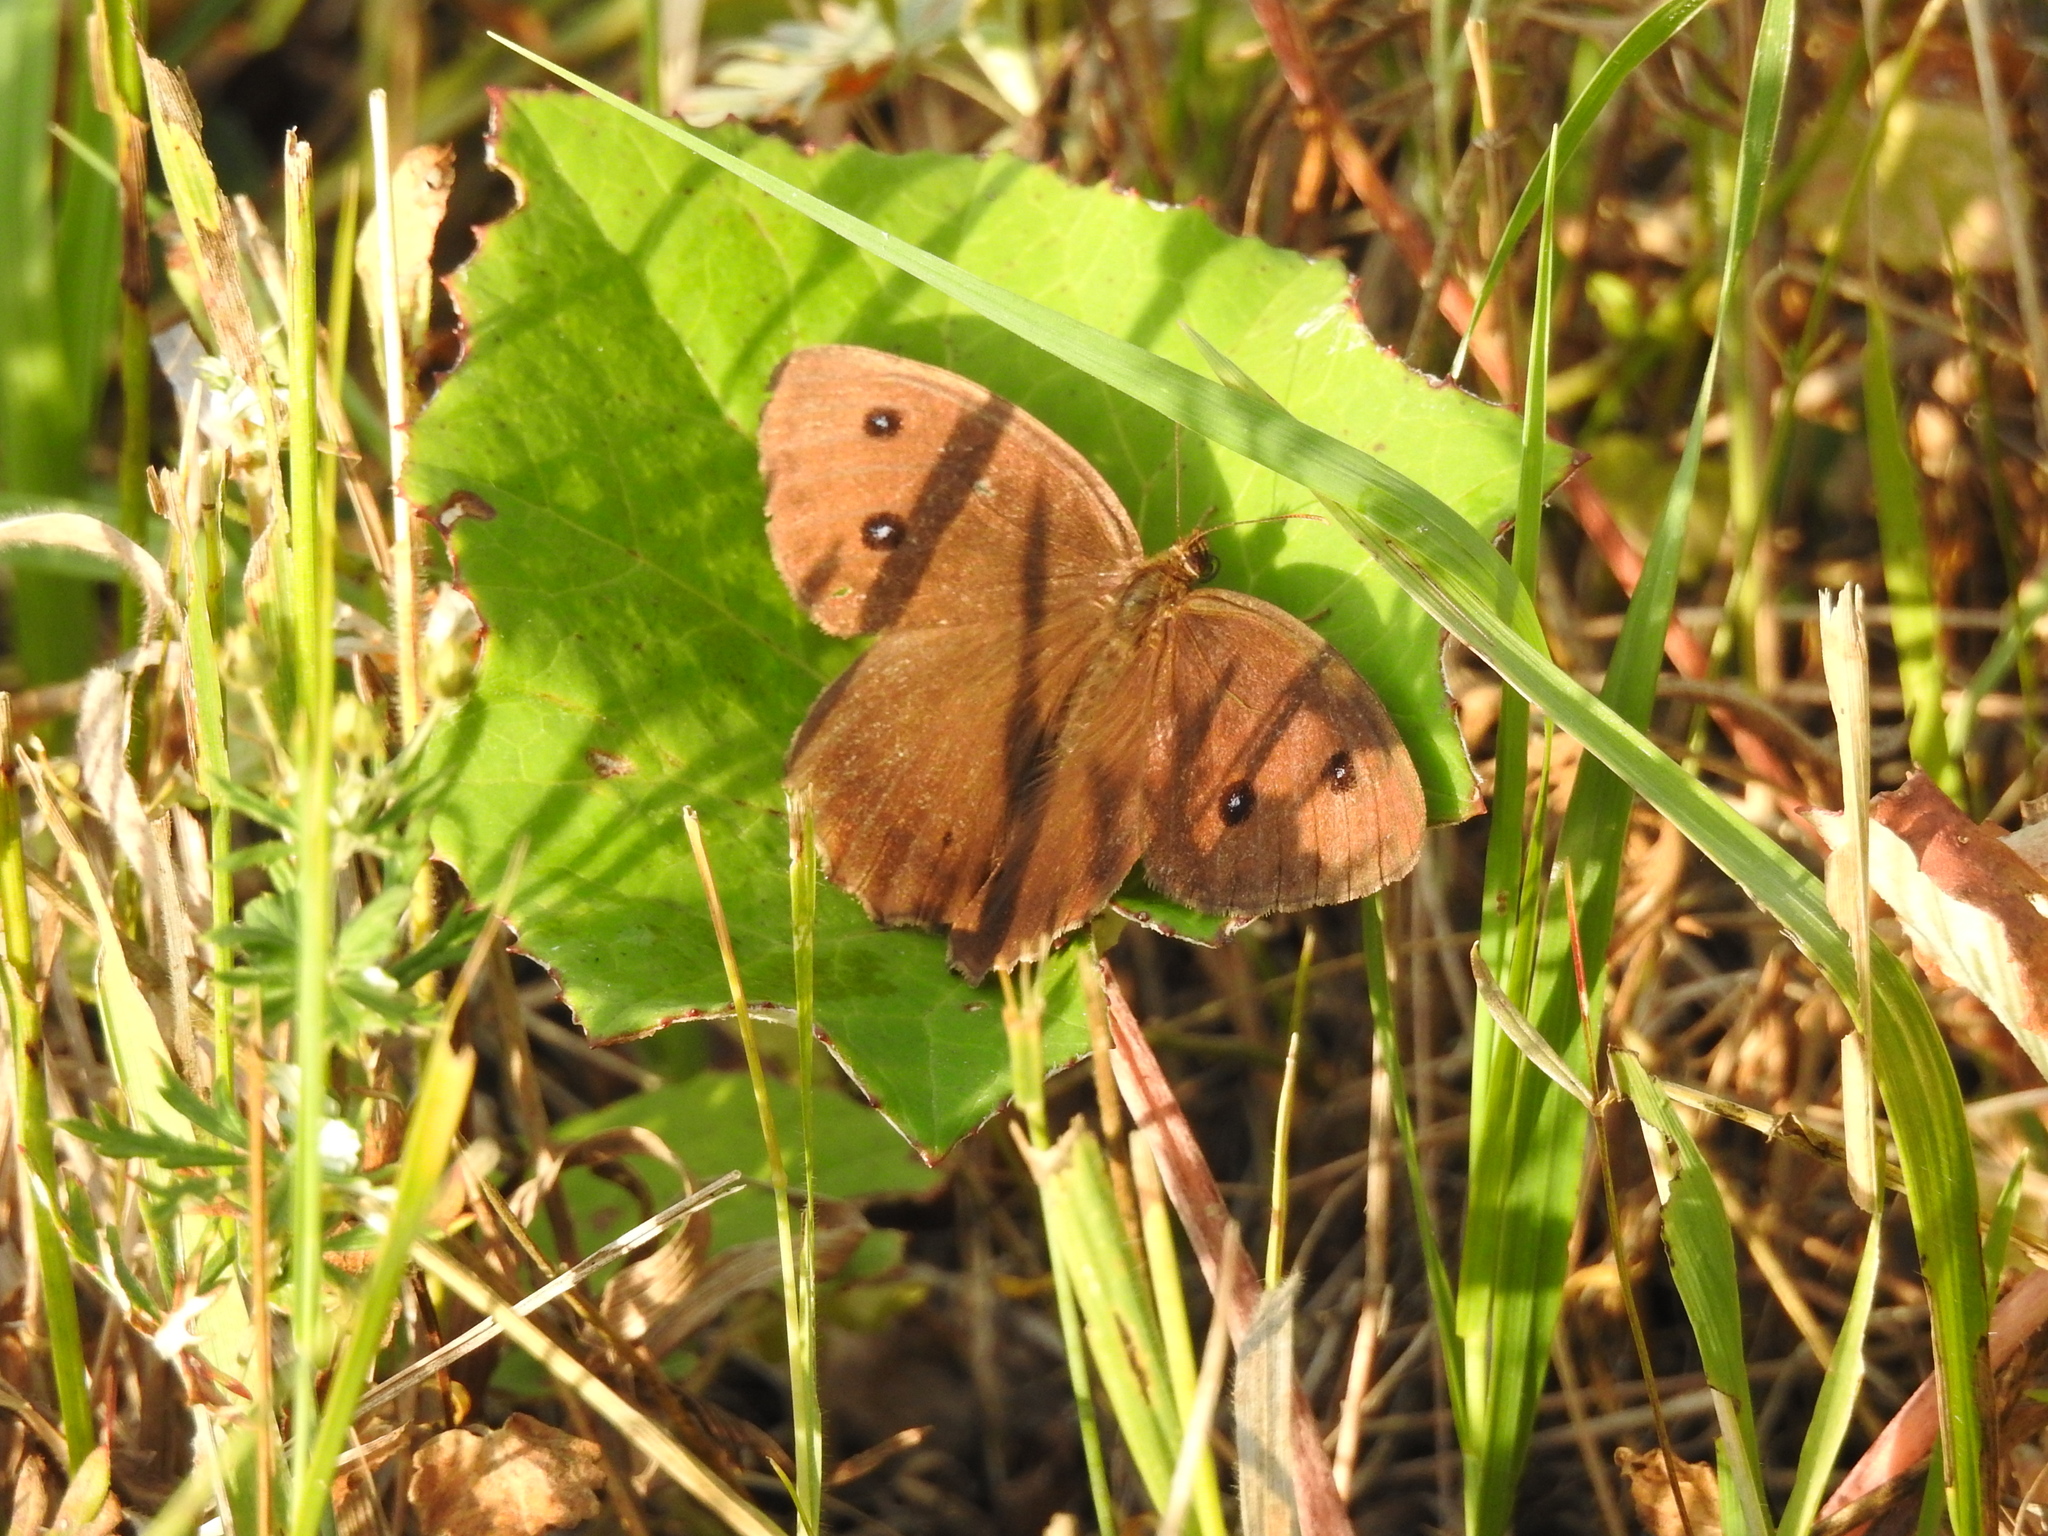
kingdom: Animalia
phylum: Arthropoda
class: Insecta
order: Lepidoptera
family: Nymphalidae
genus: Minois
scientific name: Minois dryas
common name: Dryad
